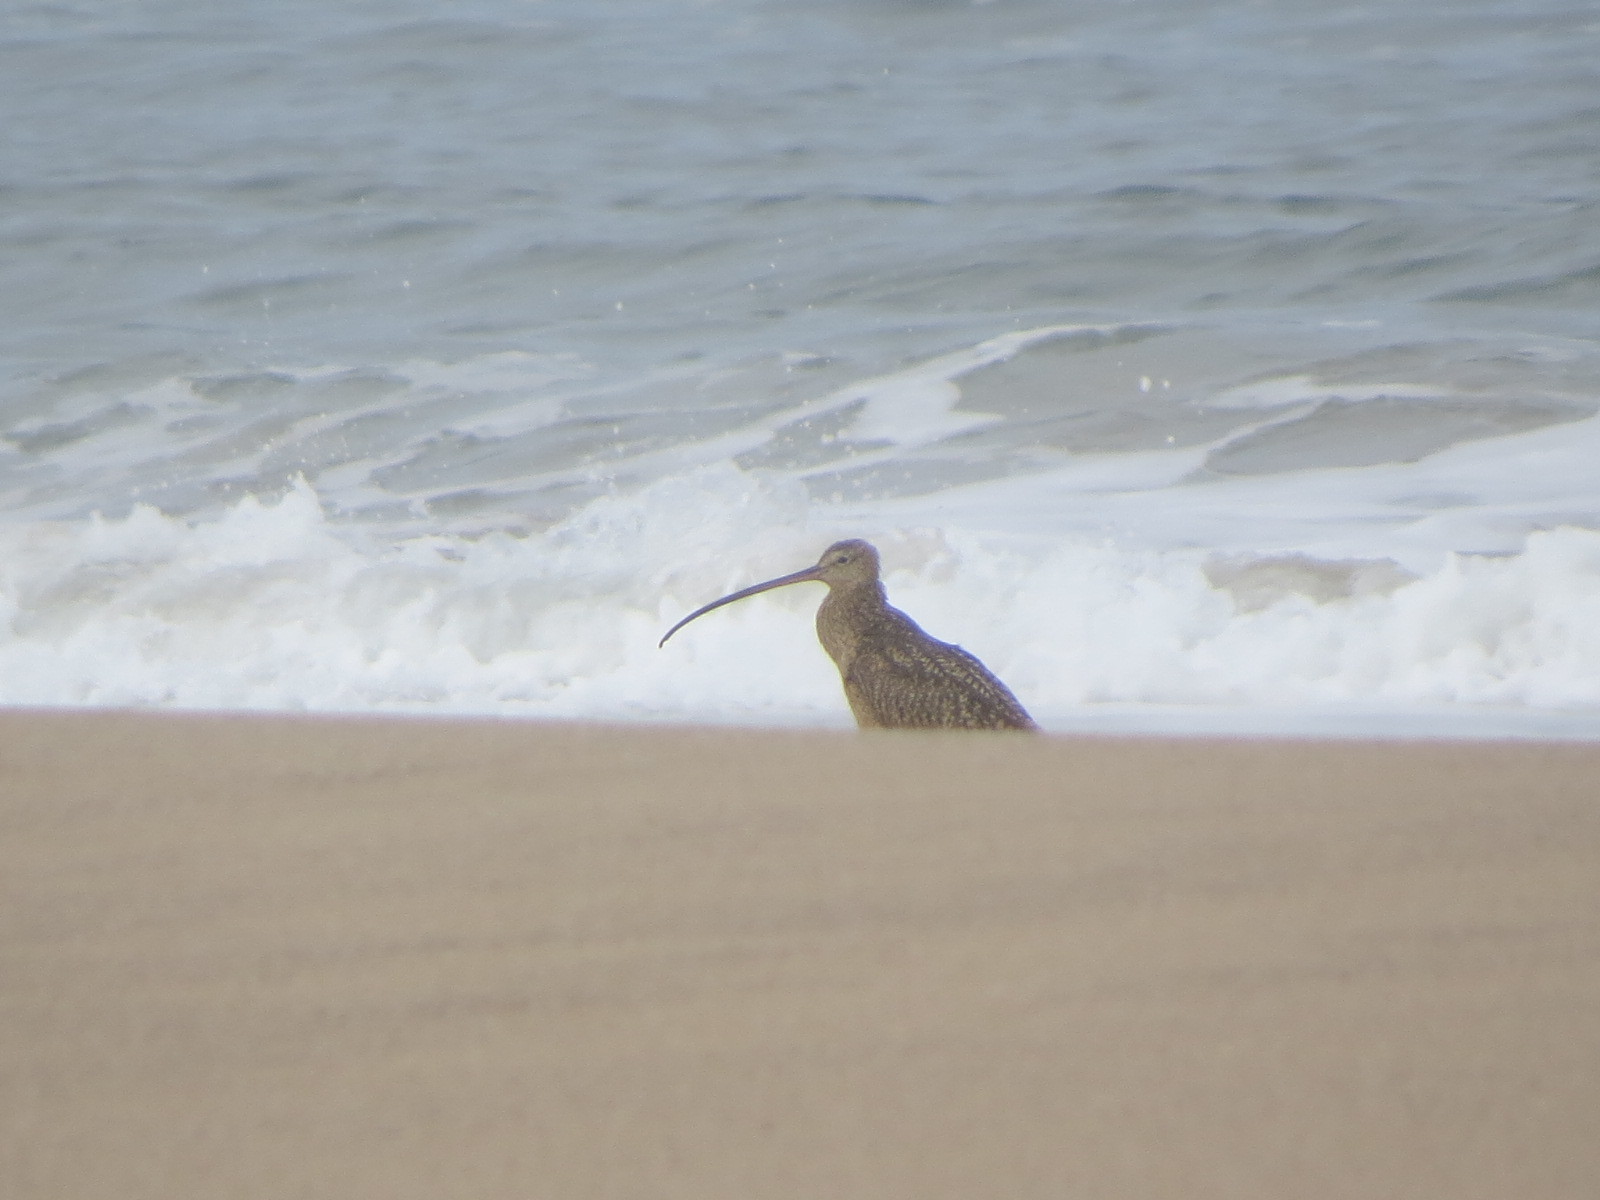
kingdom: Animalia
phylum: Chordata
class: Aves
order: Charadriiformes
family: Scolopacidae
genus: Numenius
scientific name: Numenius americanus
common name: Long-billed curlew
